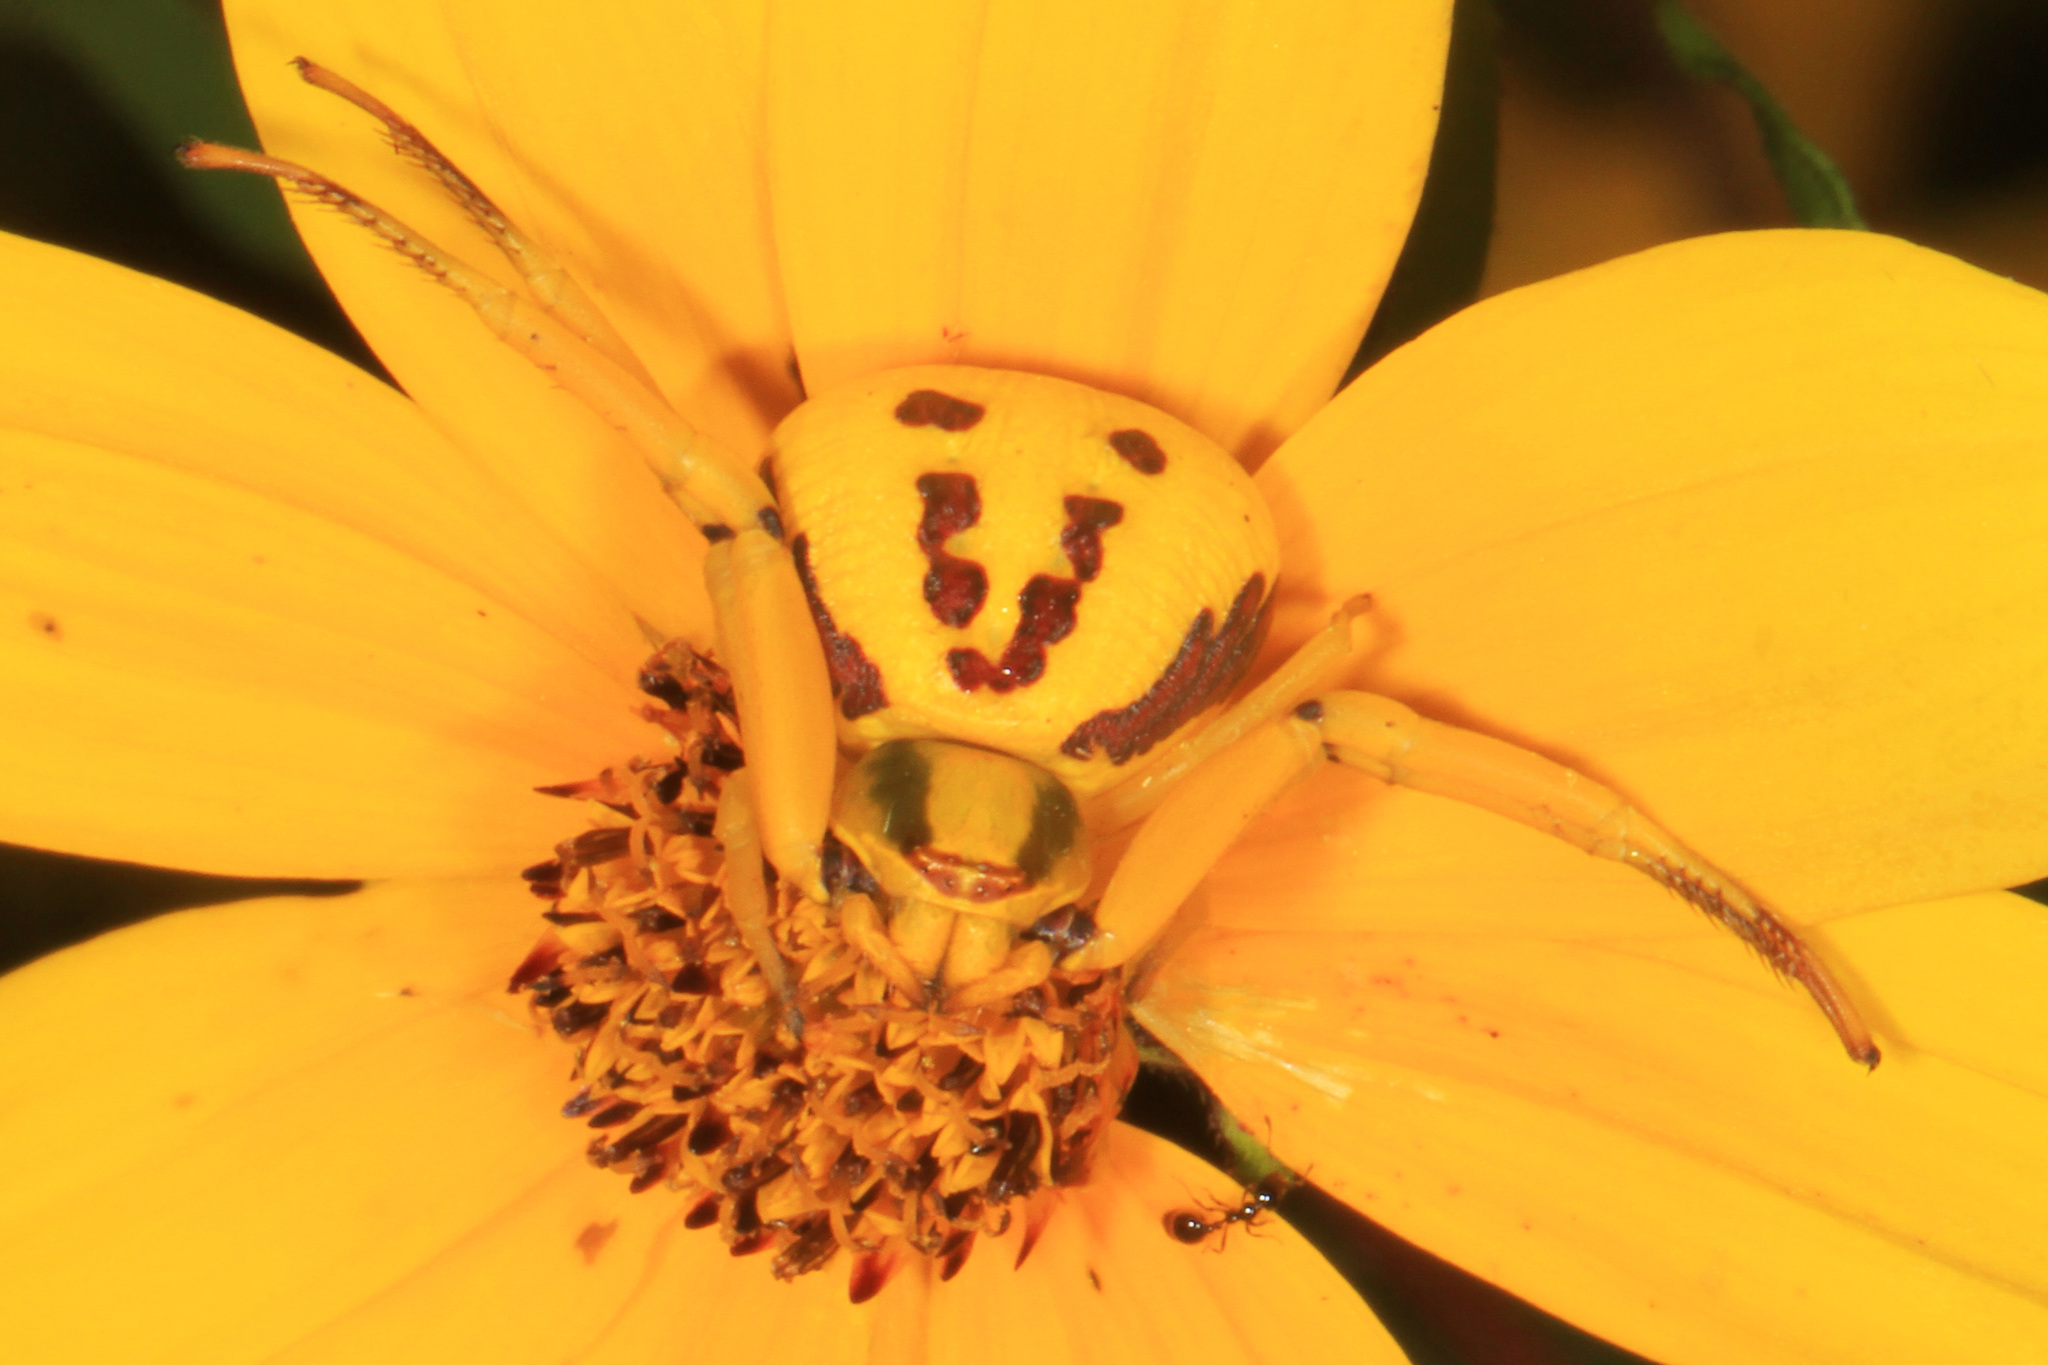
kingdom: Animalia
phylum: Arthropoda
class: Arachnida
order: Araneae
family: Thomisidae
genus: Misumenoides
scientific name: Misumenoides formosipes
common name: White-banded crab spider
